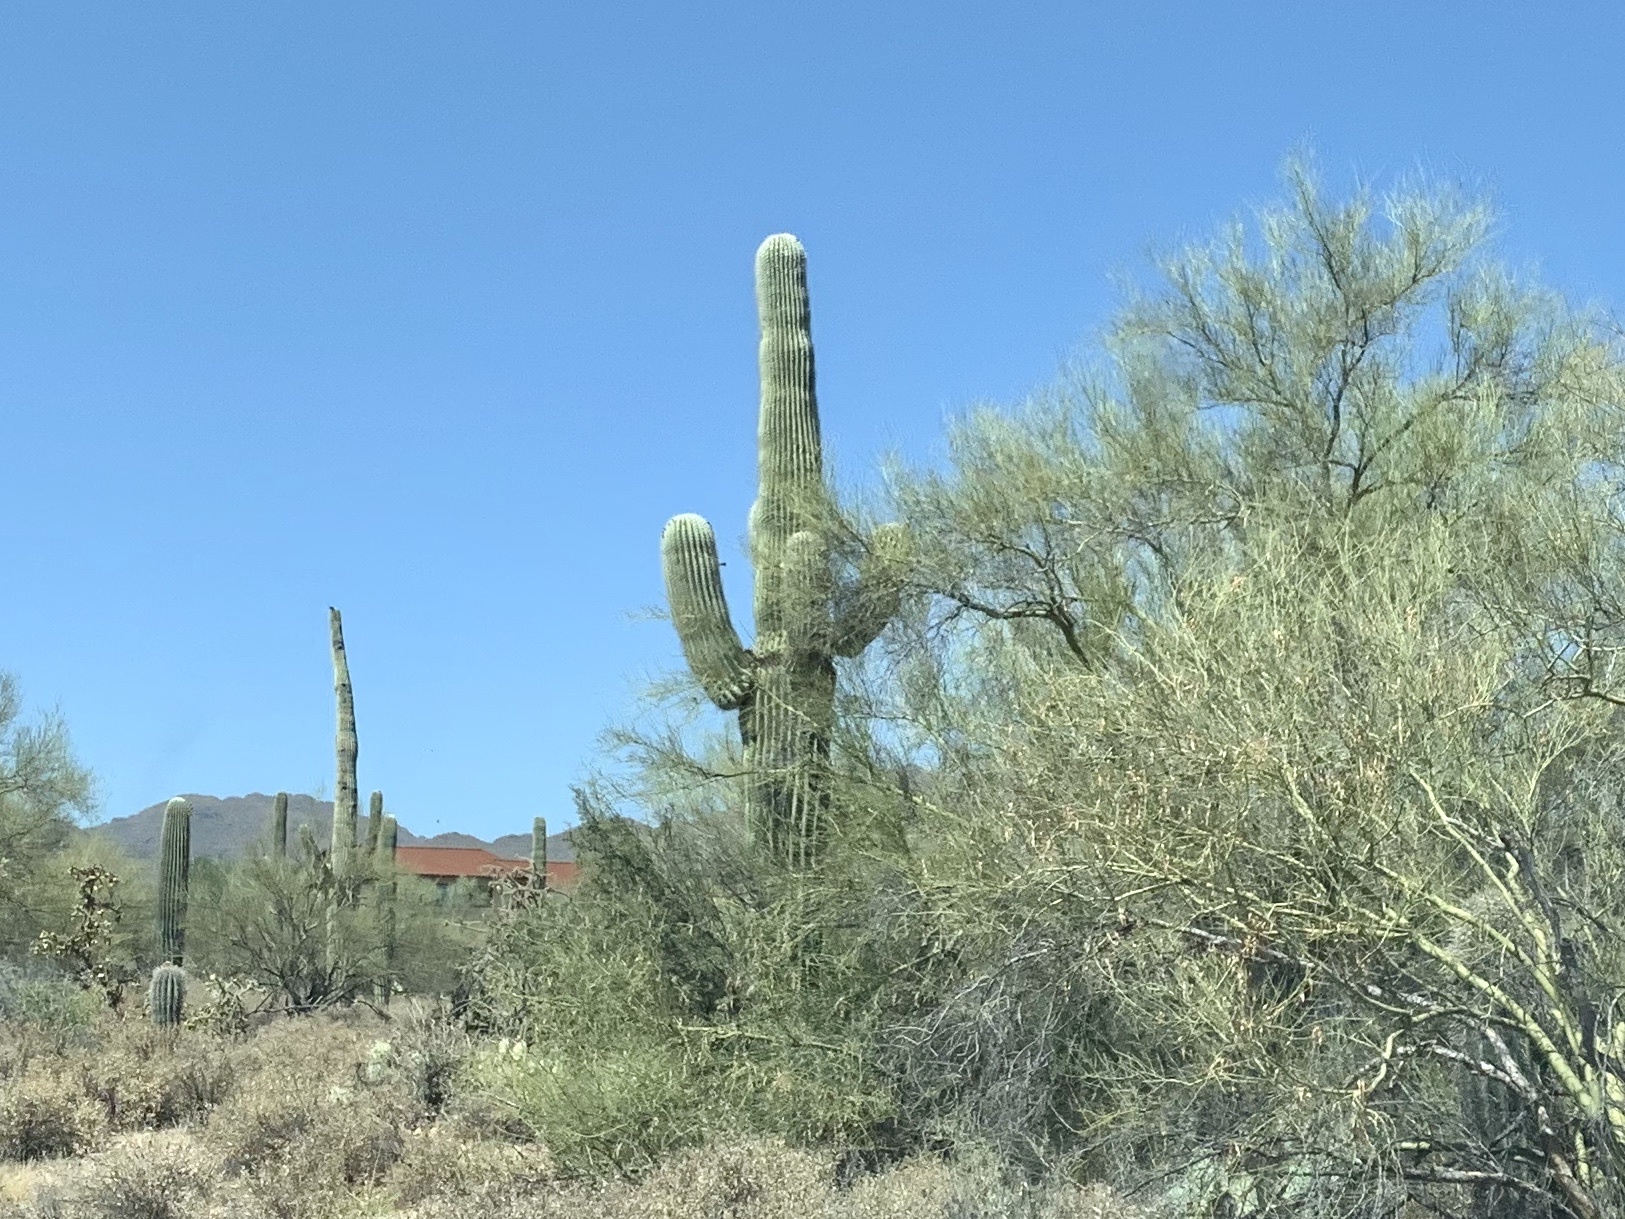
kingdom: Plantae
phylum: Tracheophyta
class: Magnoliopsida
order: Caryophyllales
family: Cactaceae
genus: Carnegiea
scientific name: Carnegiea gigantea
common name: Saguaro
